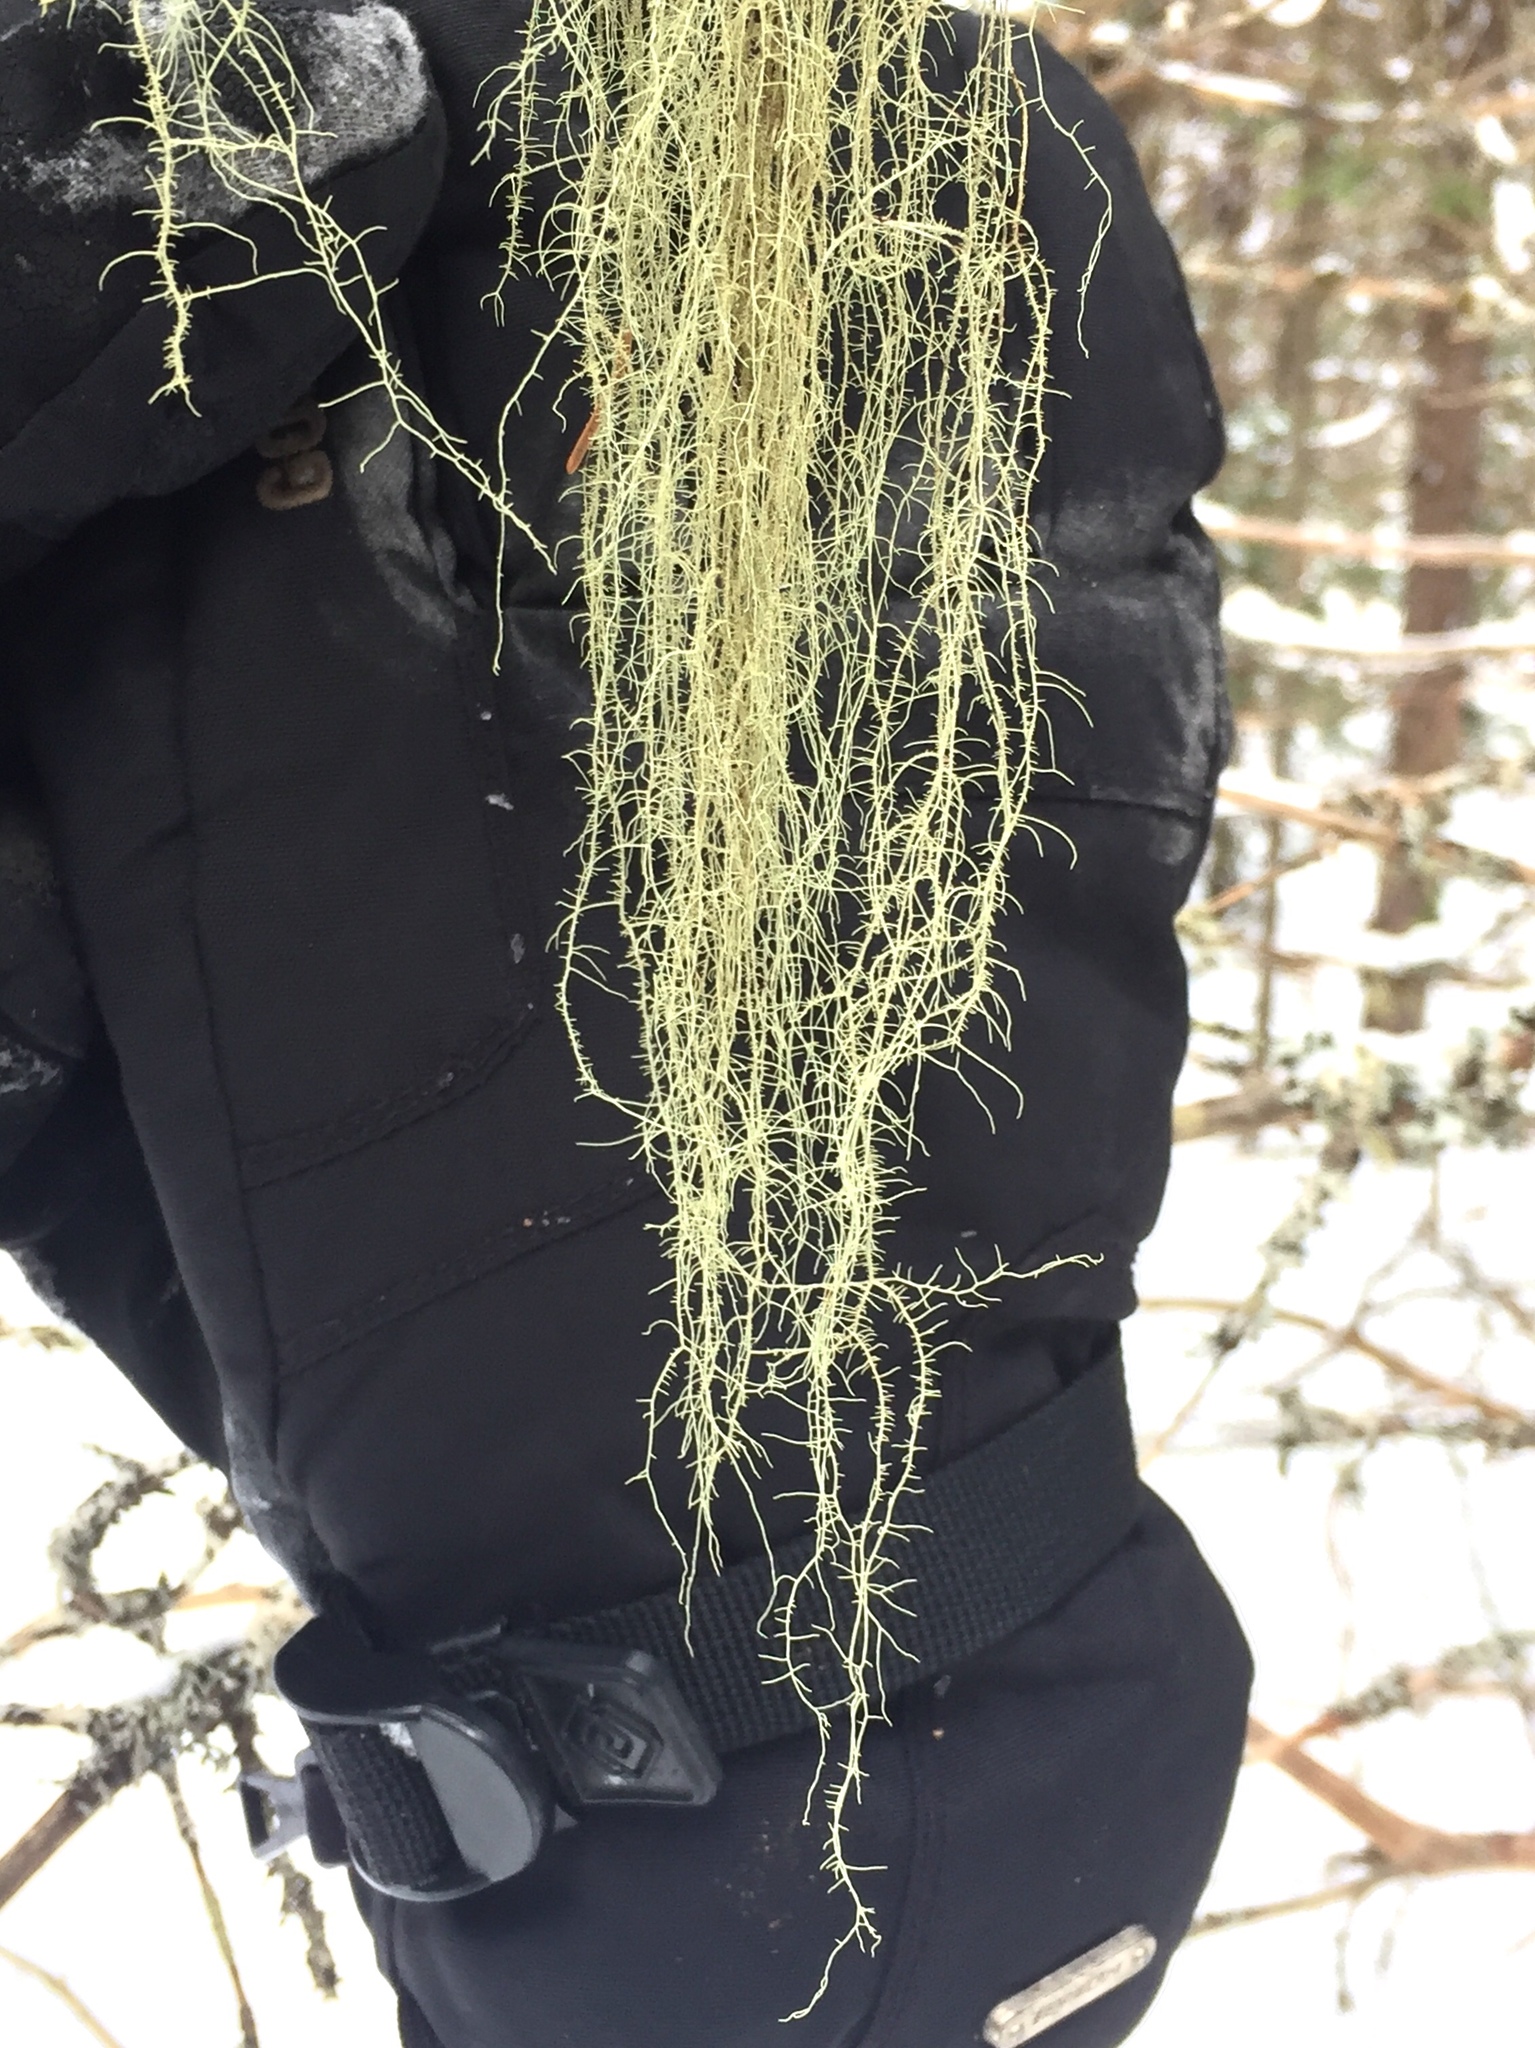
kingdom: Fungi
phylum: Ascomycota
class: Lecanoromycetes
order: Lecanorales
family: Parmeliaceae
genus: Usnea
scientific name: Usnea dasopoga
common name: Fishbone beard lichen
